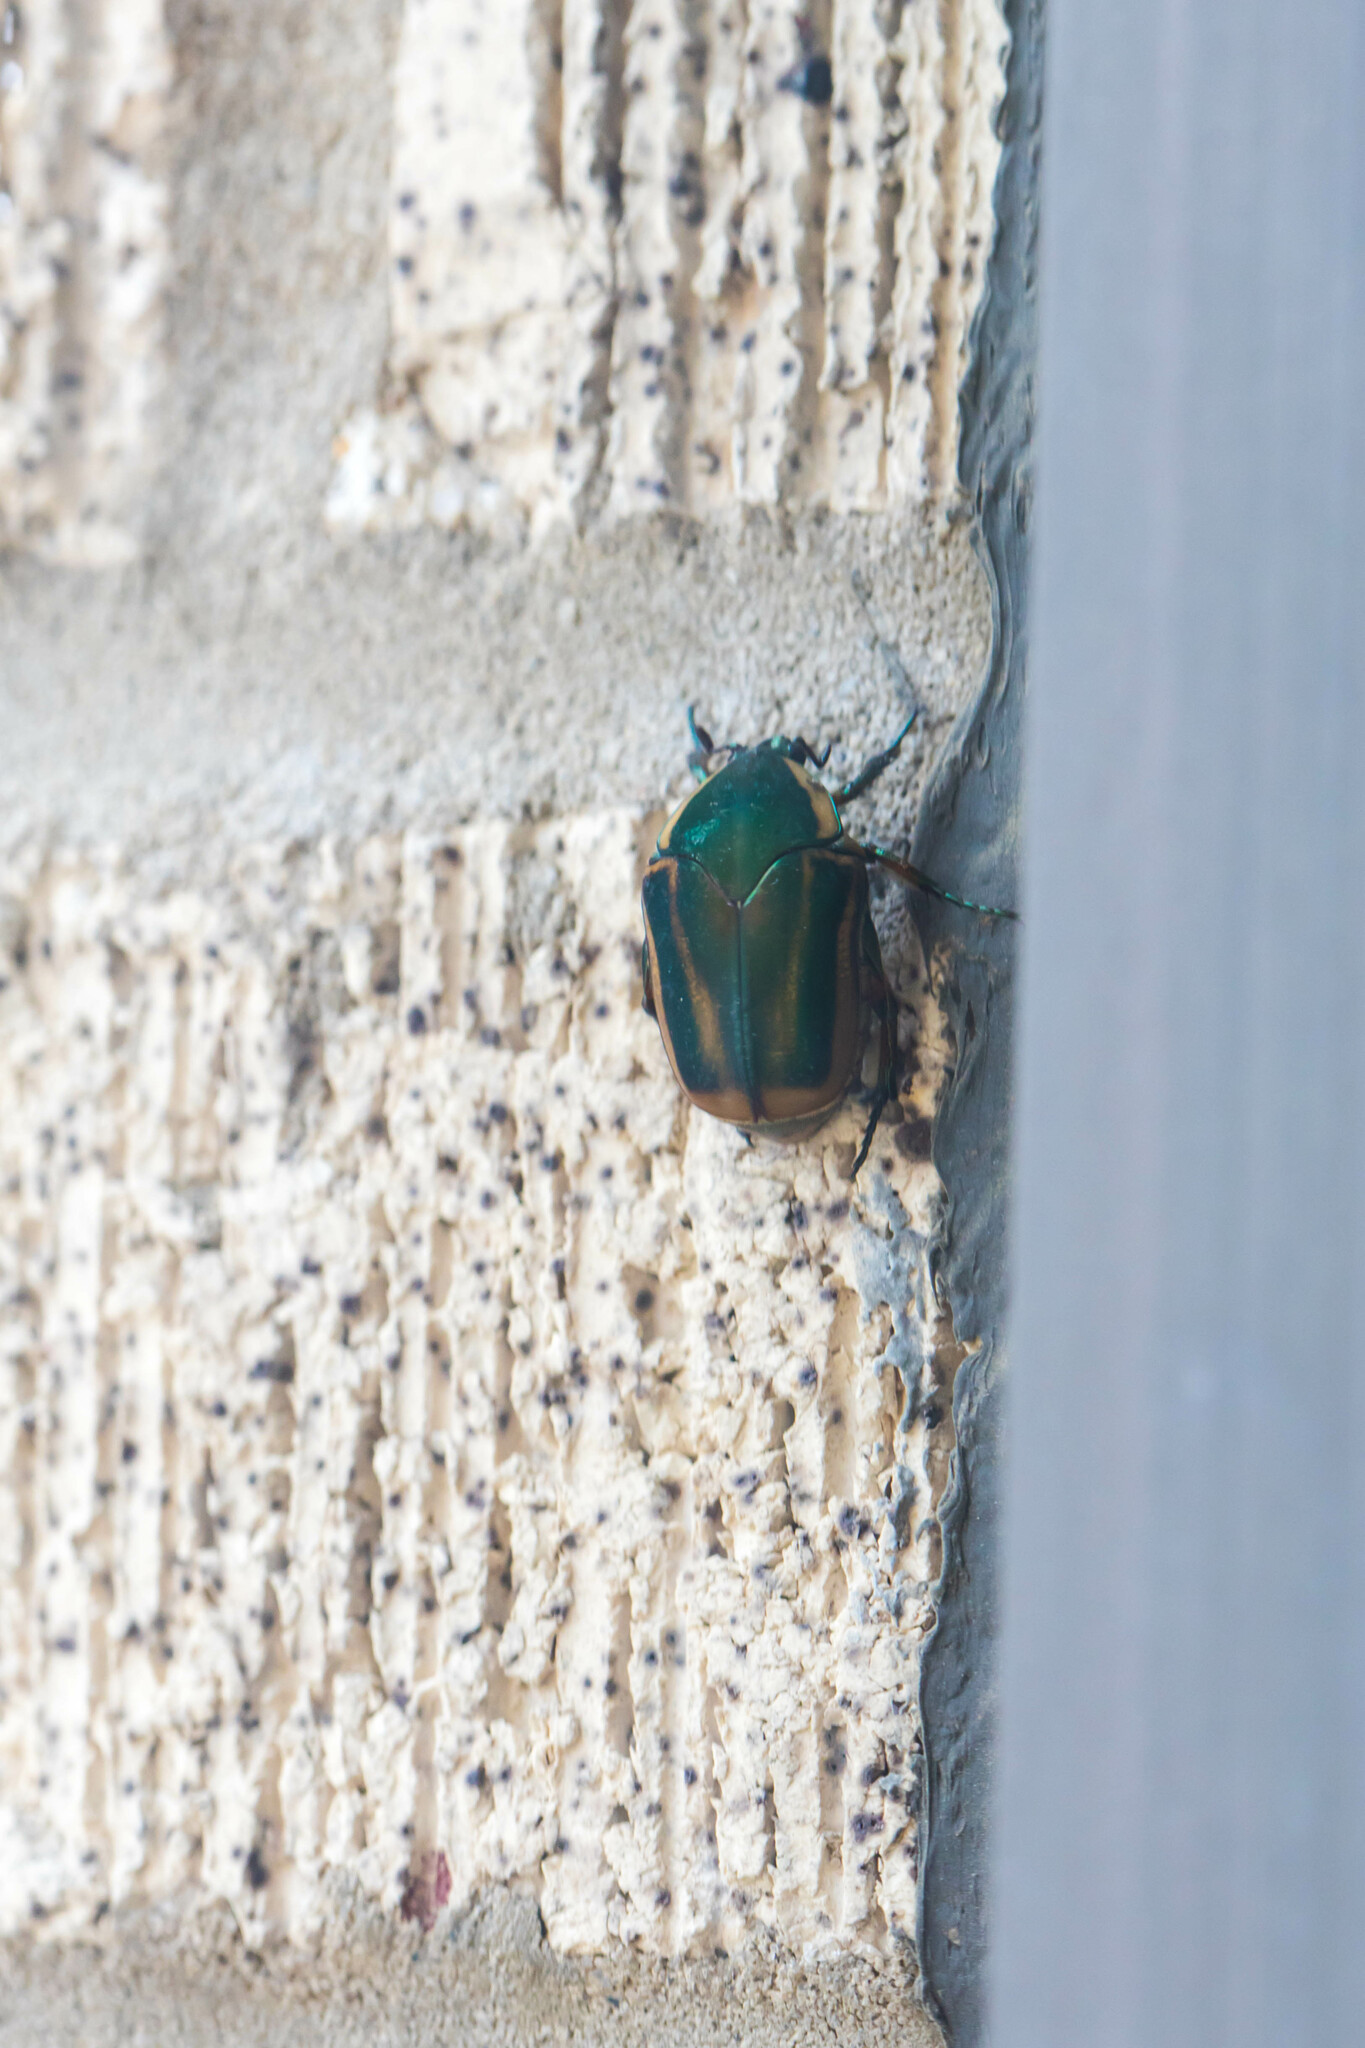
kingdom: Animalia
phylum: Arthropoda
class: Insecta
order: Coleoptera
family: Scarabaeidae
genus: Cotinis
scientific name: Cotinis nitida
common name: Common green june beetle
